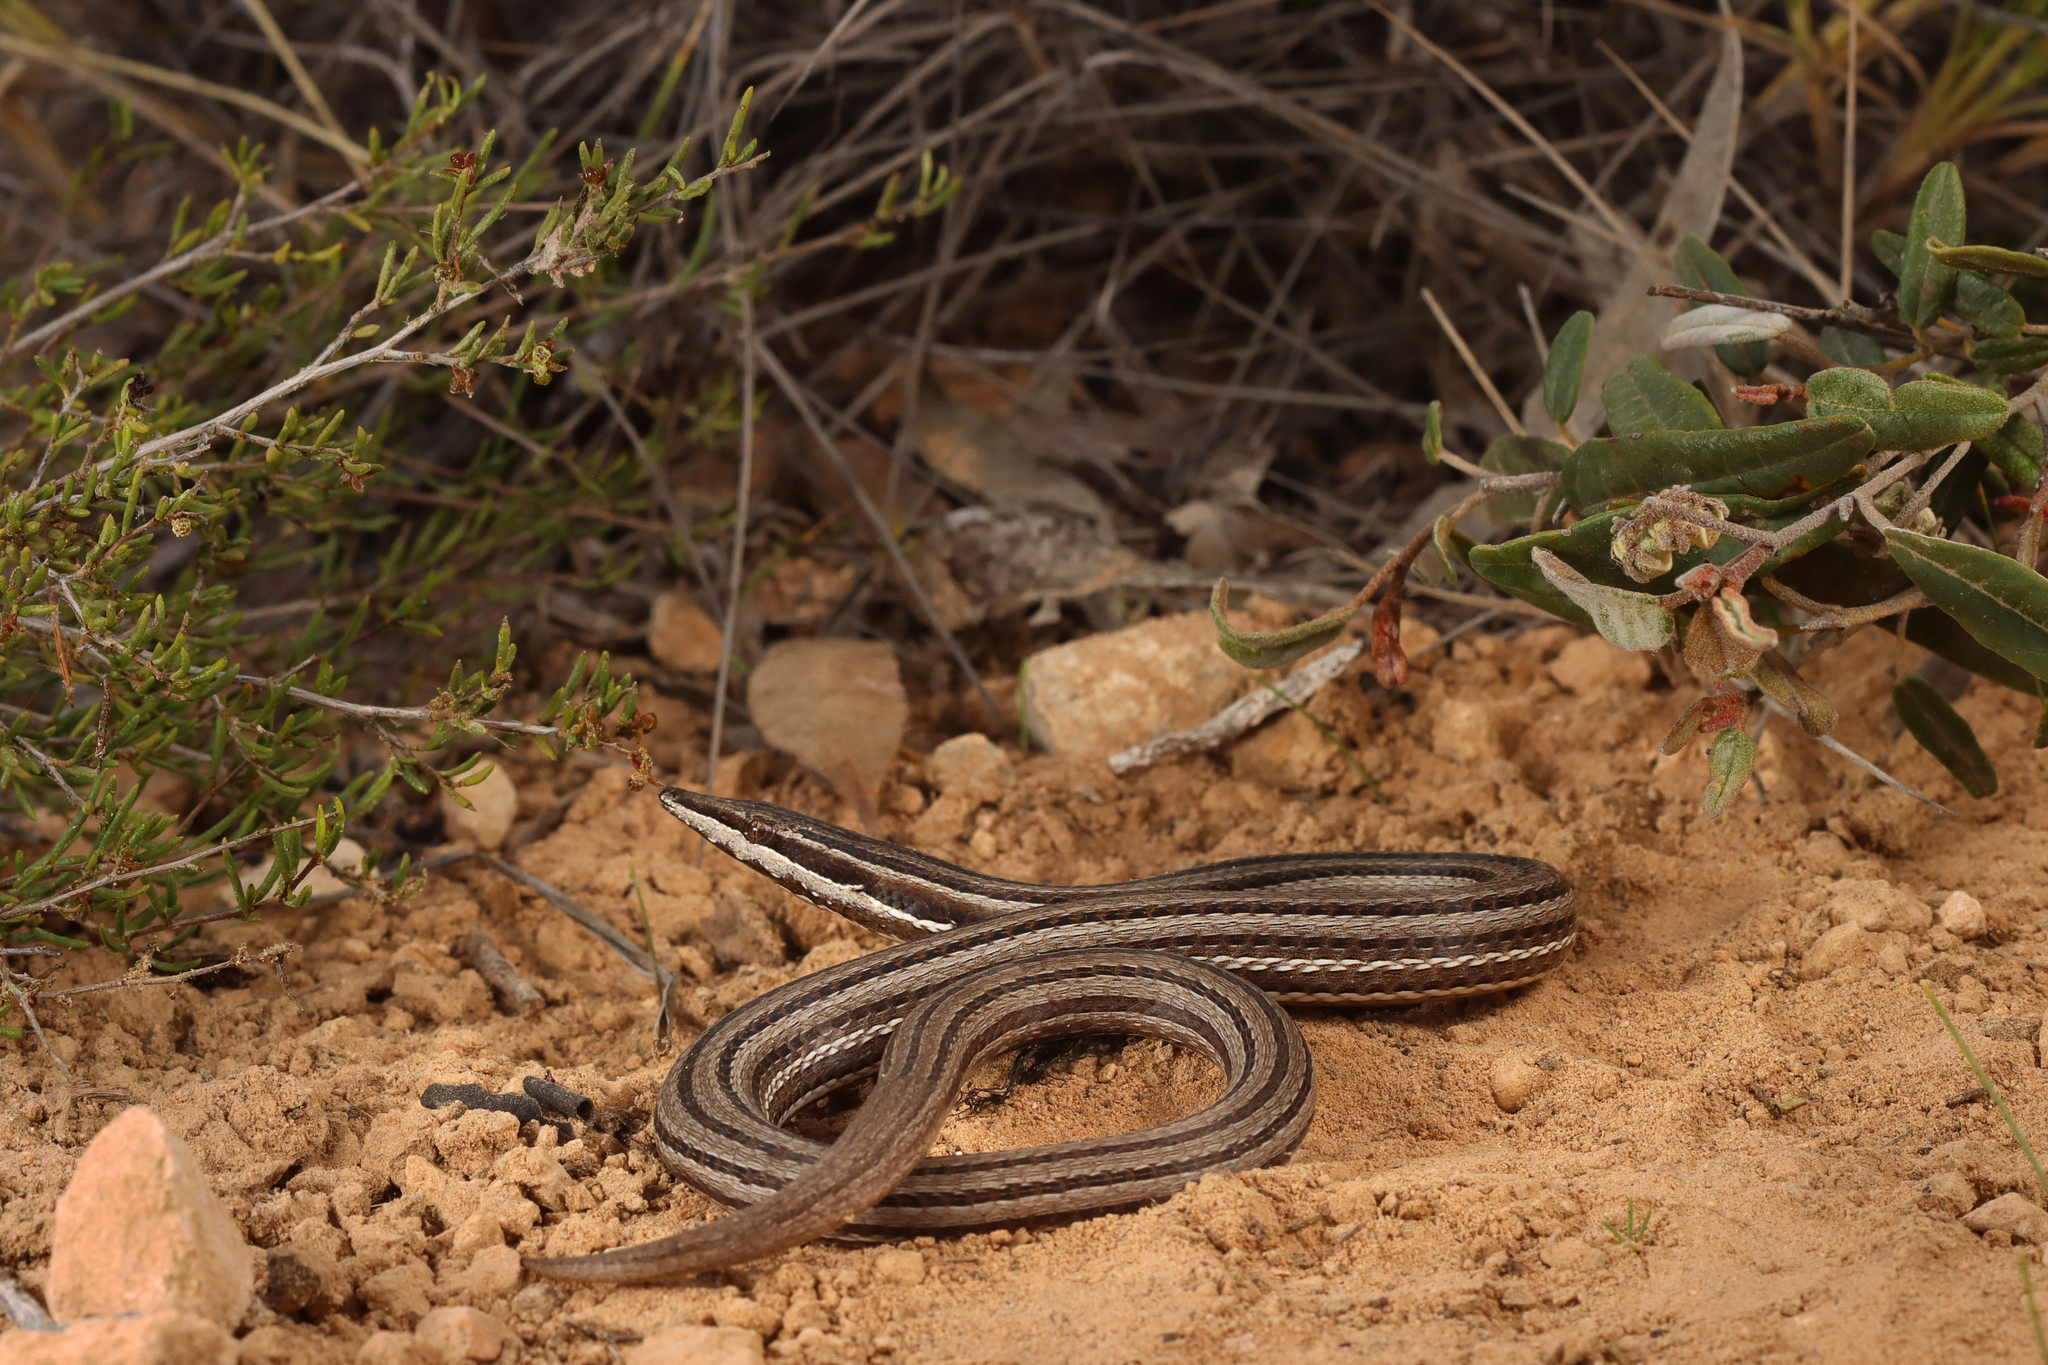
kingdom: Animalia
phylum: Chordata
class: Squamata
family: Pygopodidae
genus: Lialis
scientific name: Lialis burtonis
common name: Burton's legless lizard
